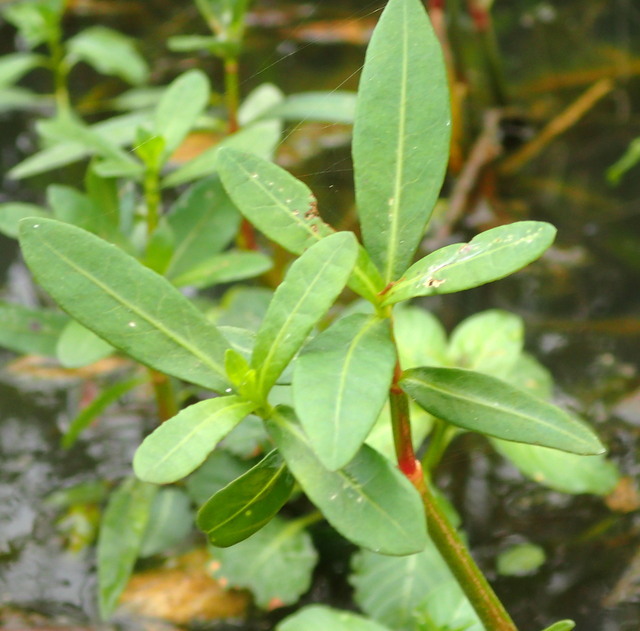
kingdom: Plantae
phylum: Tracheophyta
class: Magnoliopsida
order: Caryophyllales
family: Amaranthaceae
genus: Alternanthera
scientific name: Alternanthera philoxeroides
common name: Alligatorweed
